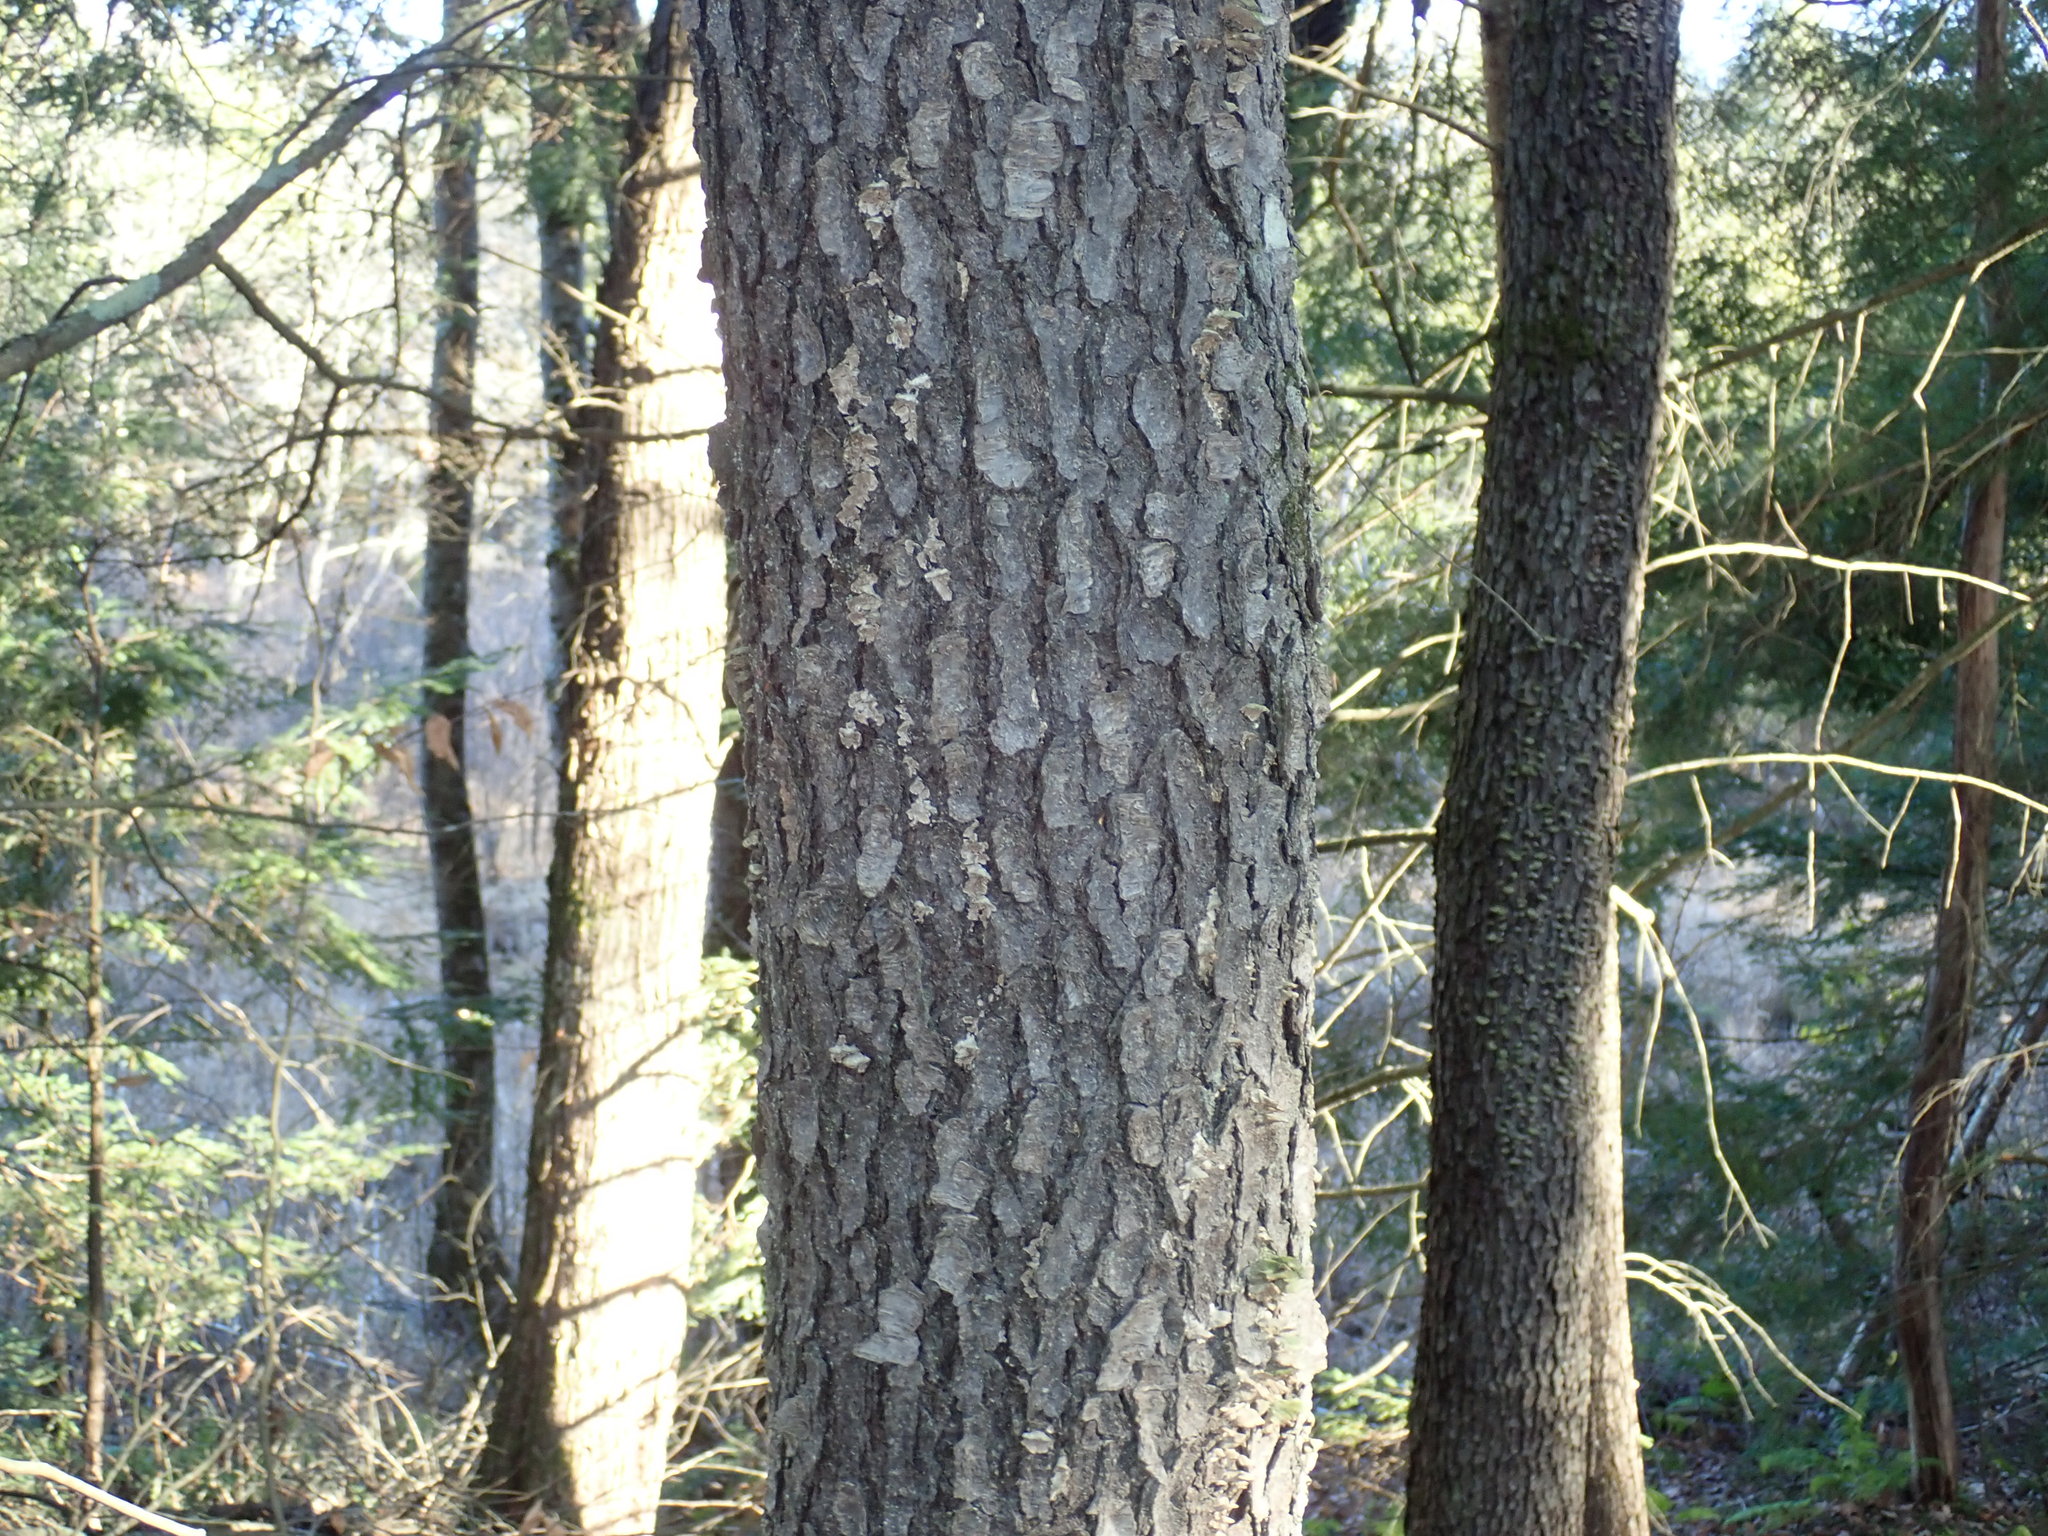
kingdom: Plantae
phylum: Tracheophyta
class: Magnoliopsida
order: Rosales
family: Rosaceae
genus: Prunus
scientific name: Prunus serotina
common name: Black cherry
